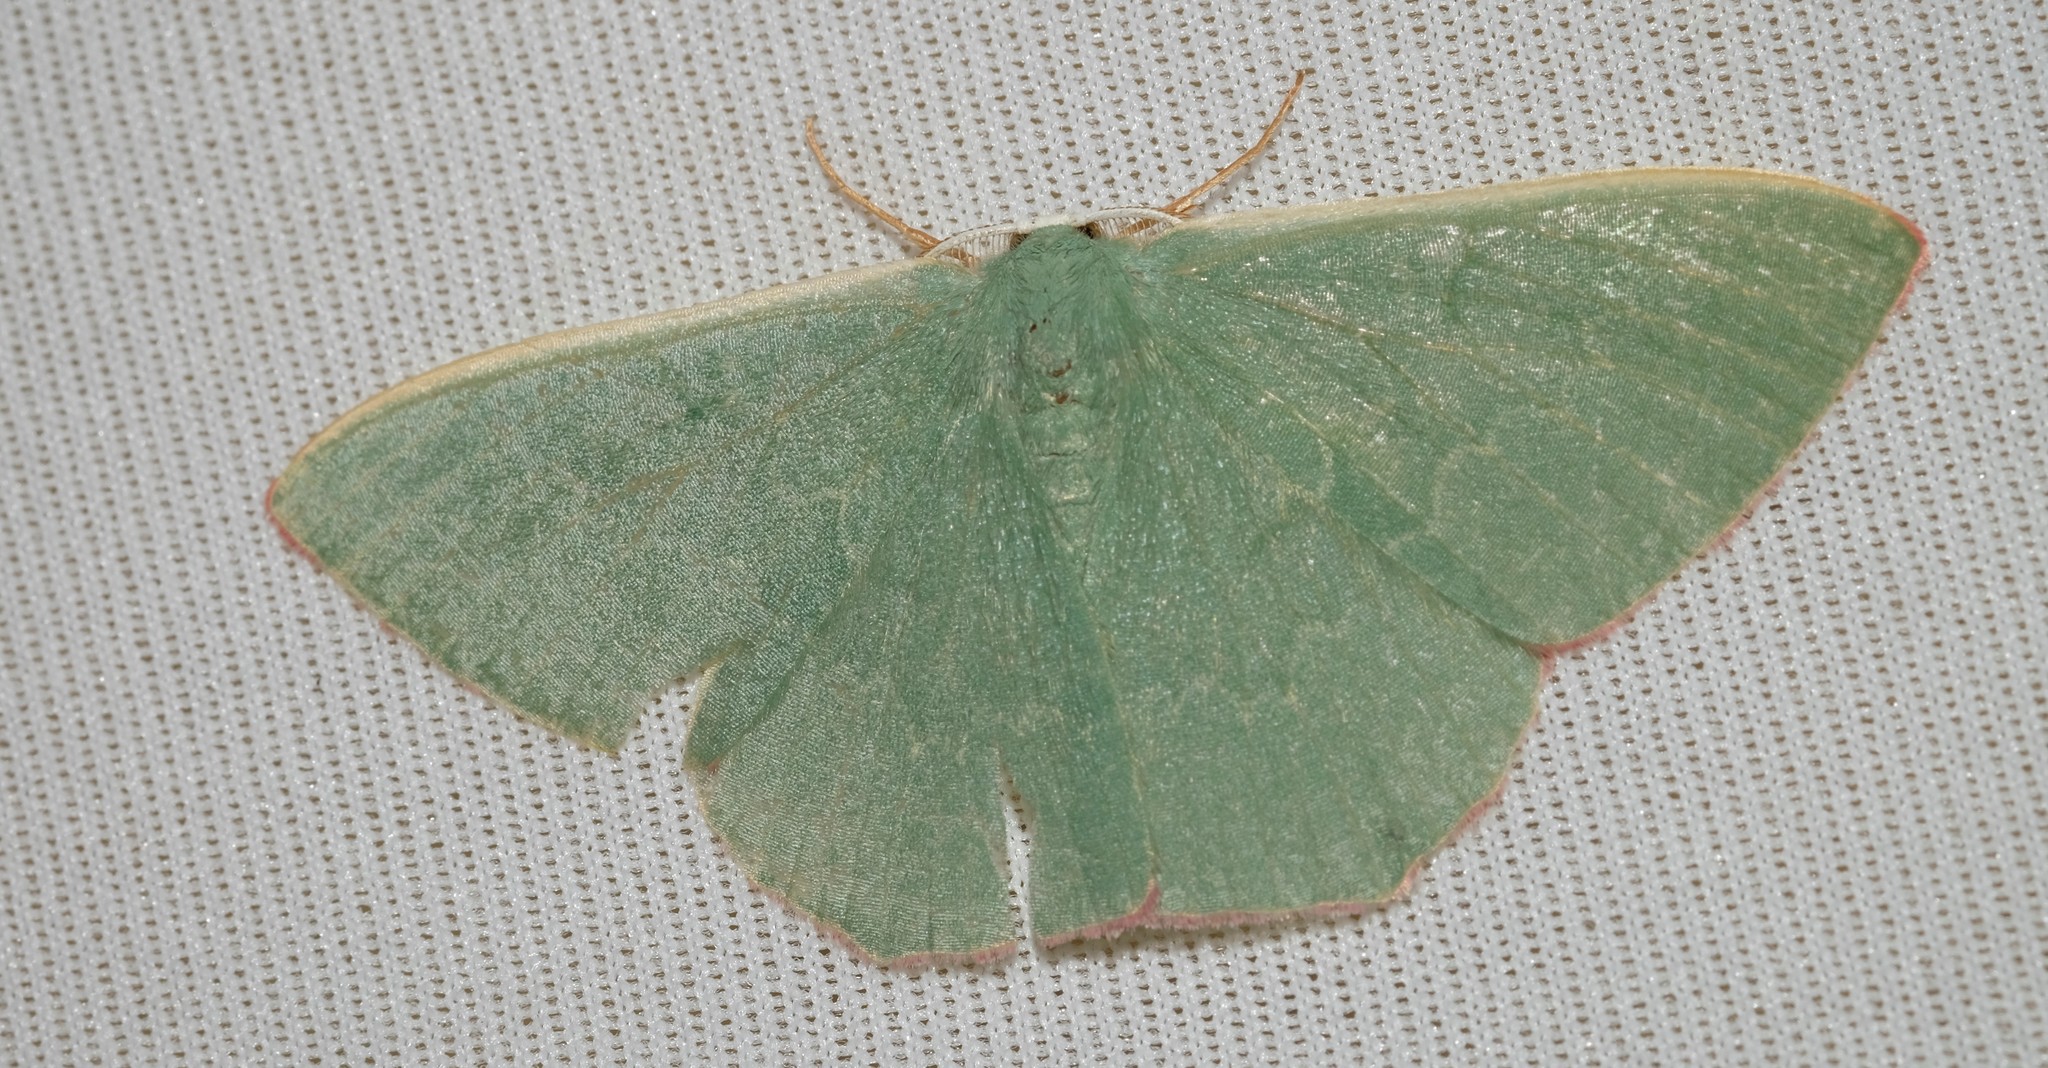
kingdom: Animalia
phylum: Arthropoda
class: Insecta
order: Lepidoptera
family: Geometridae
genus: Prasinocyma
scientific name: Prasinocyma semicrocea
